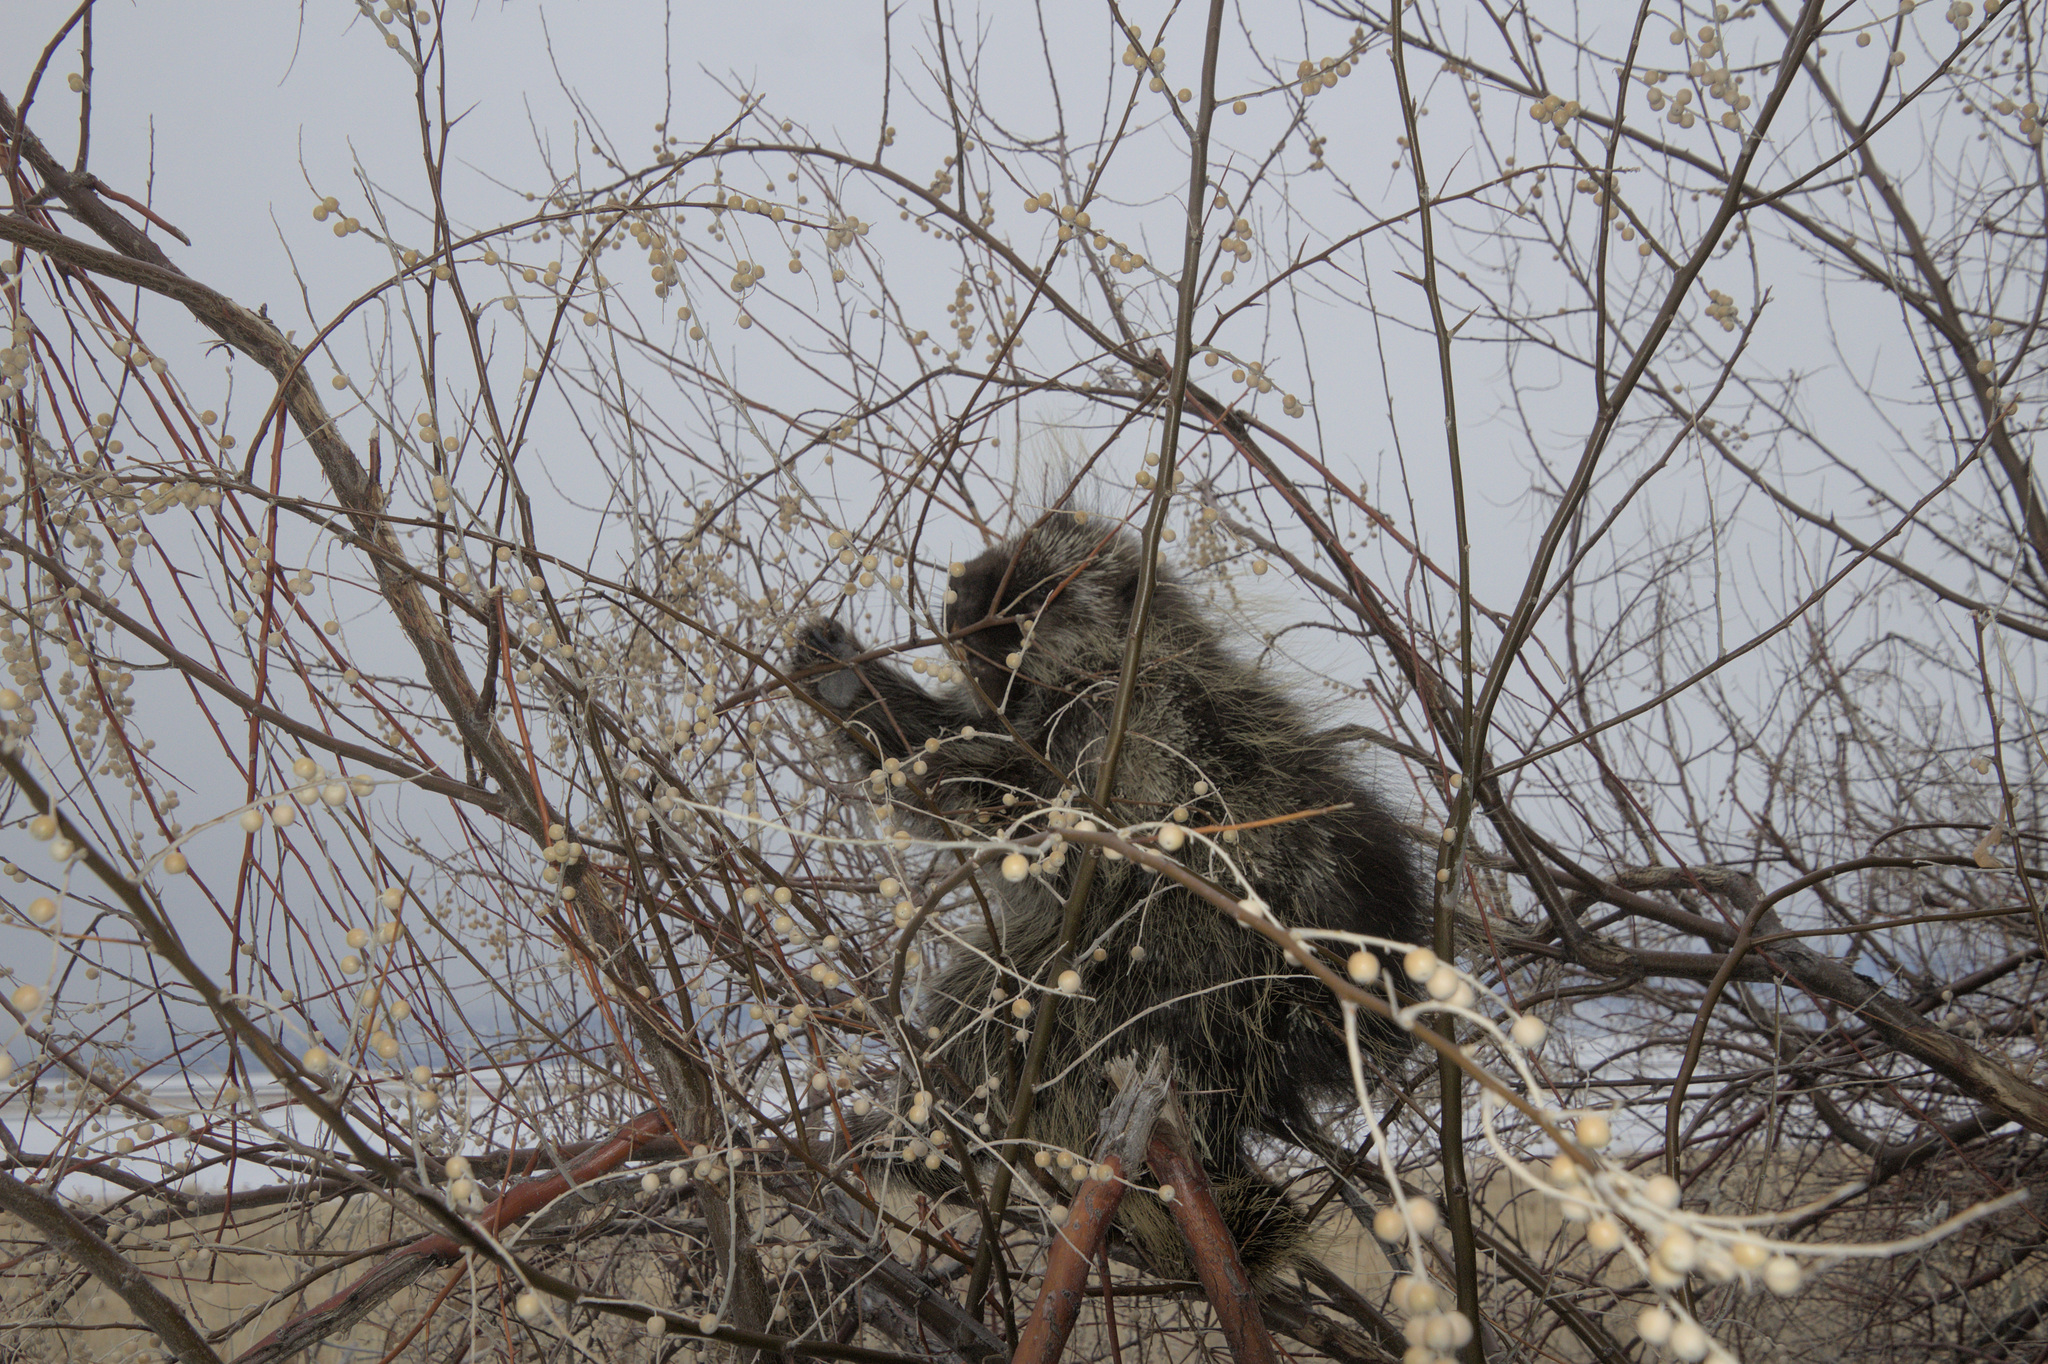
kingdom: Animalia
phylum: Chordata
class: Mammalia
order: Rodentia
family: Erethizontidae
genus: Erethizon
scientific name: Erethizon dorsatus
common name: North american porcupine
